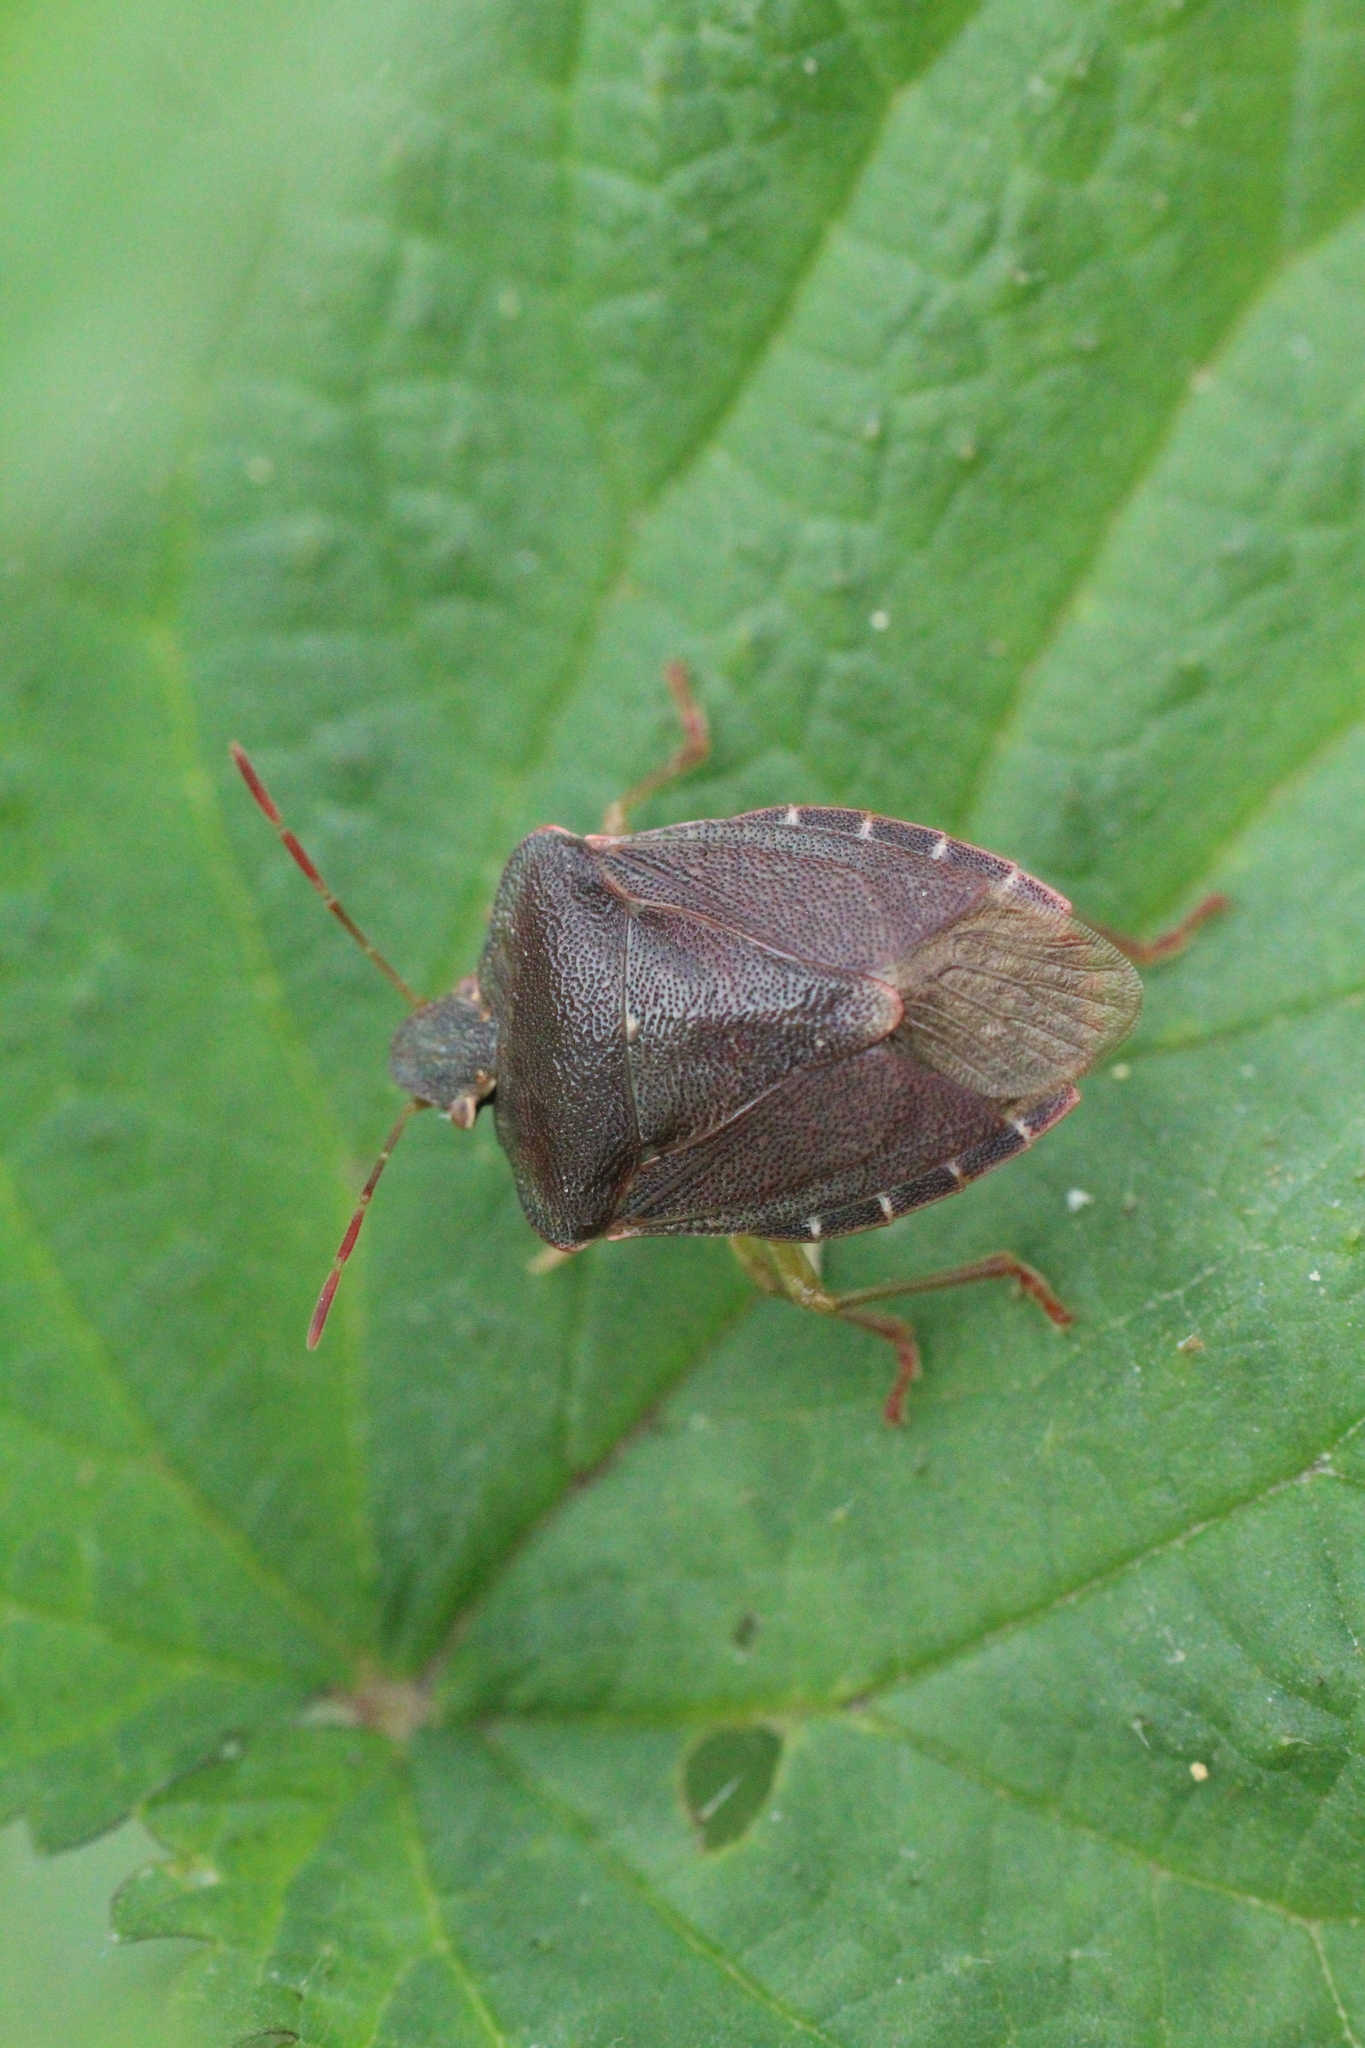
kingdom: Animalia
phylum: Arthropoda
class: Insecta
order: Hemiptera
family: Pentatomidae
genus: Palomena
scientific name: Palomena prasina
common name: Green shieldbug
